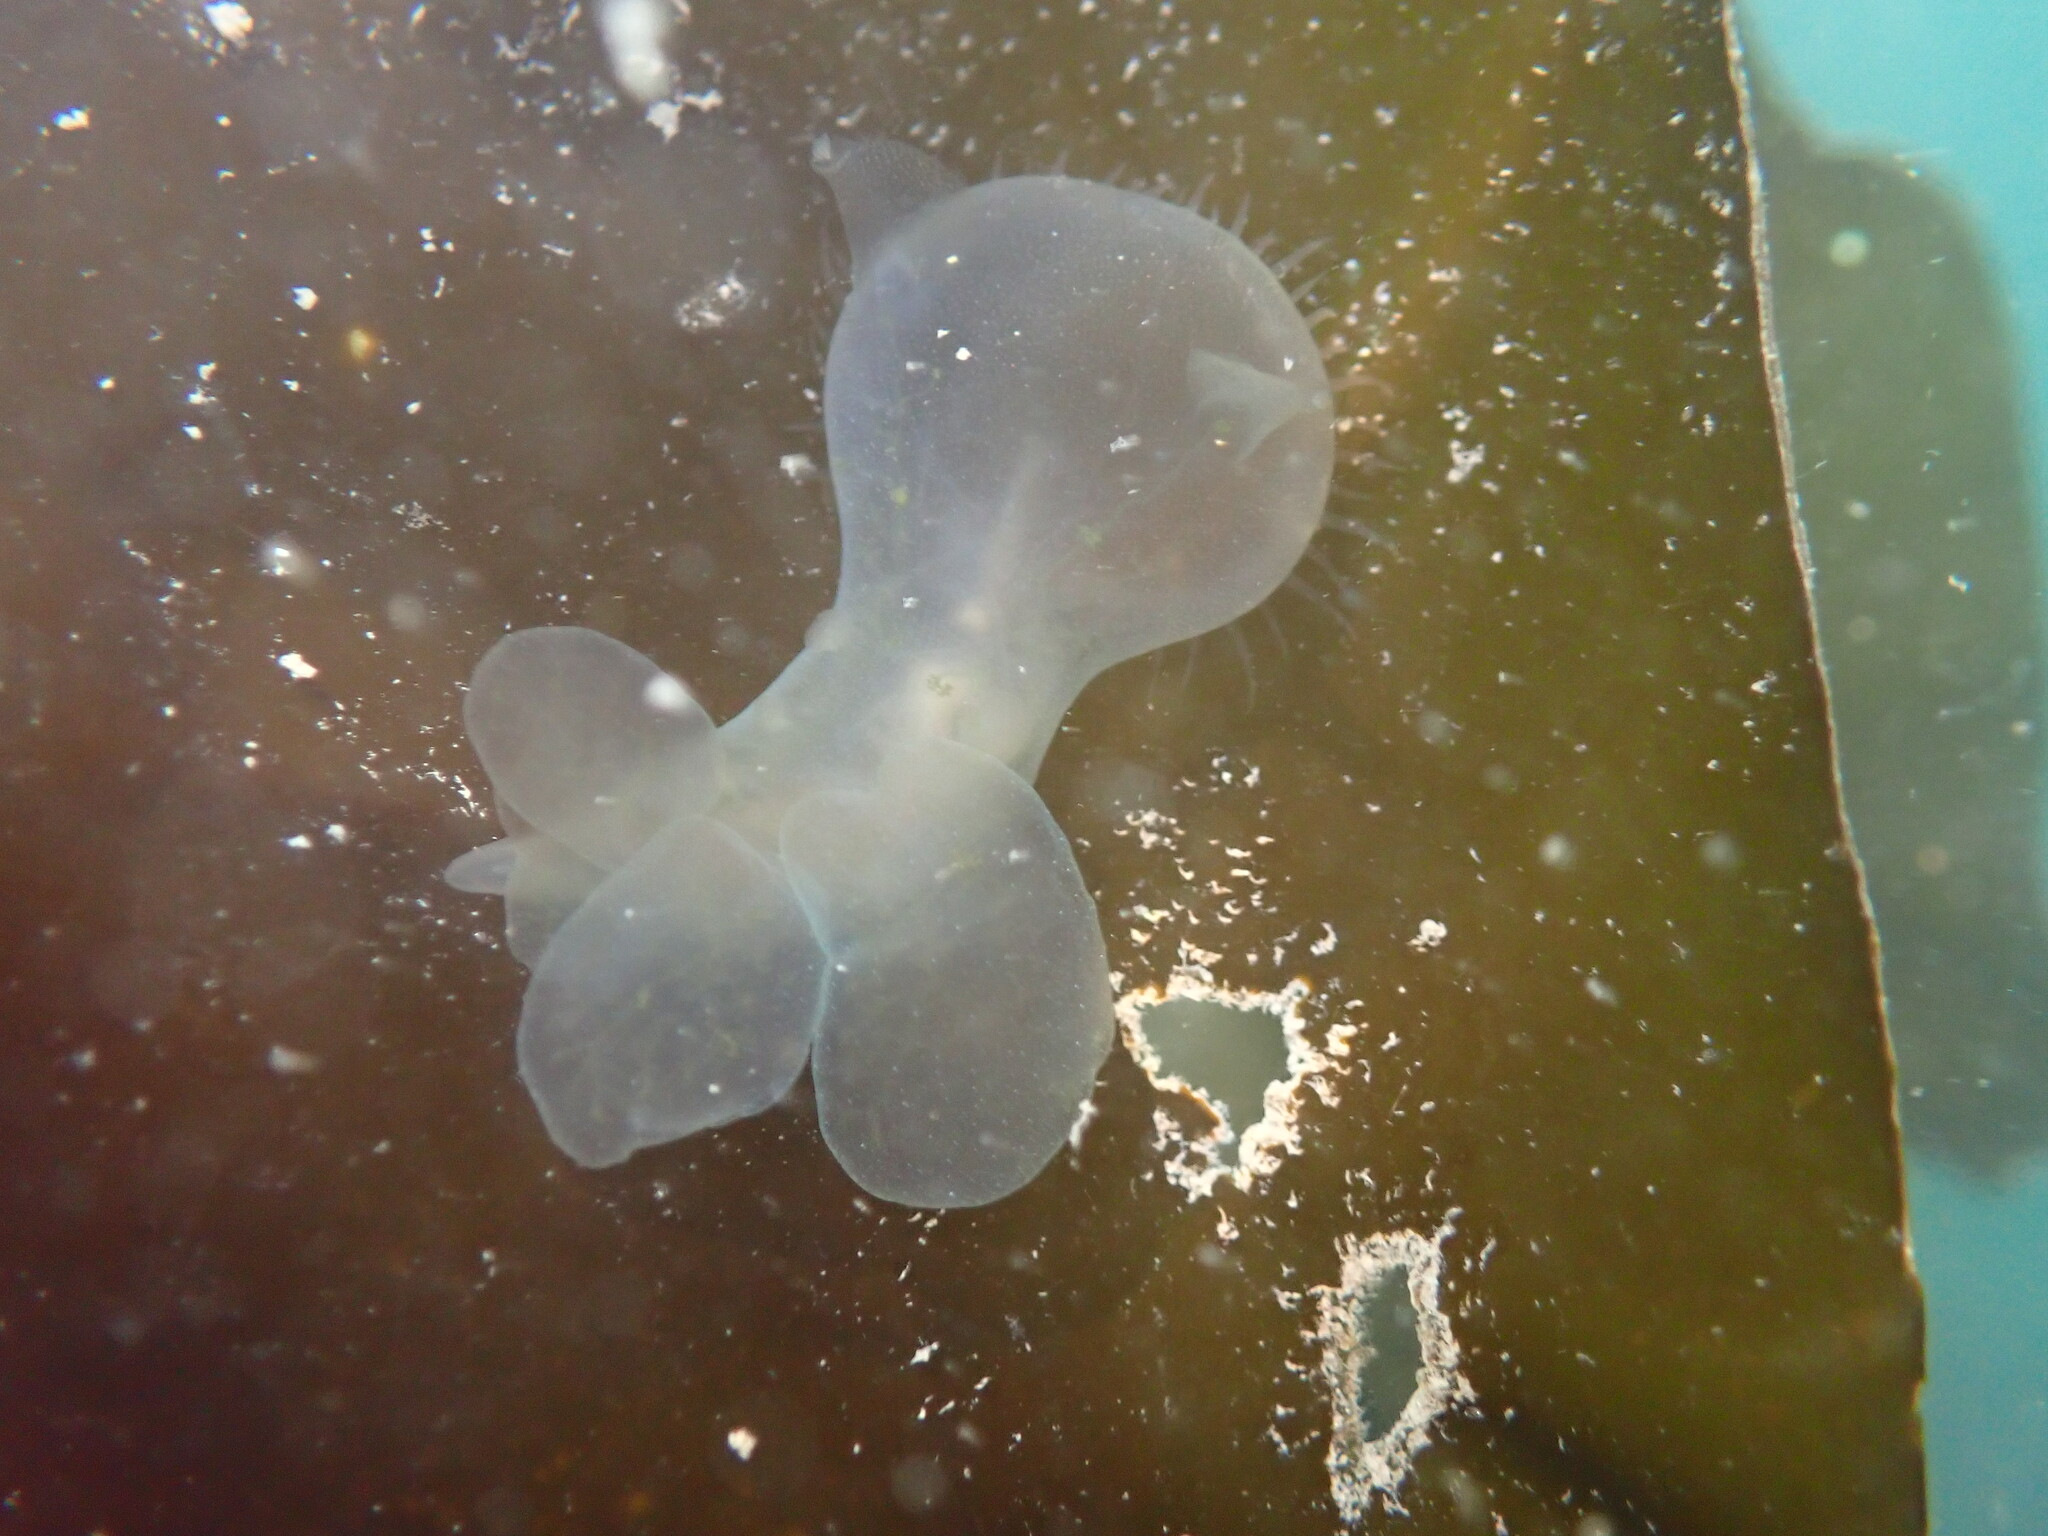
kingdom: Animalia
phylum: Mollusca
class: Gastropoda
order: Nudibranchia
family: Tethydidae
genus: Melibe
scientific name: Melibe leonina
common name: Lion nudibranch
